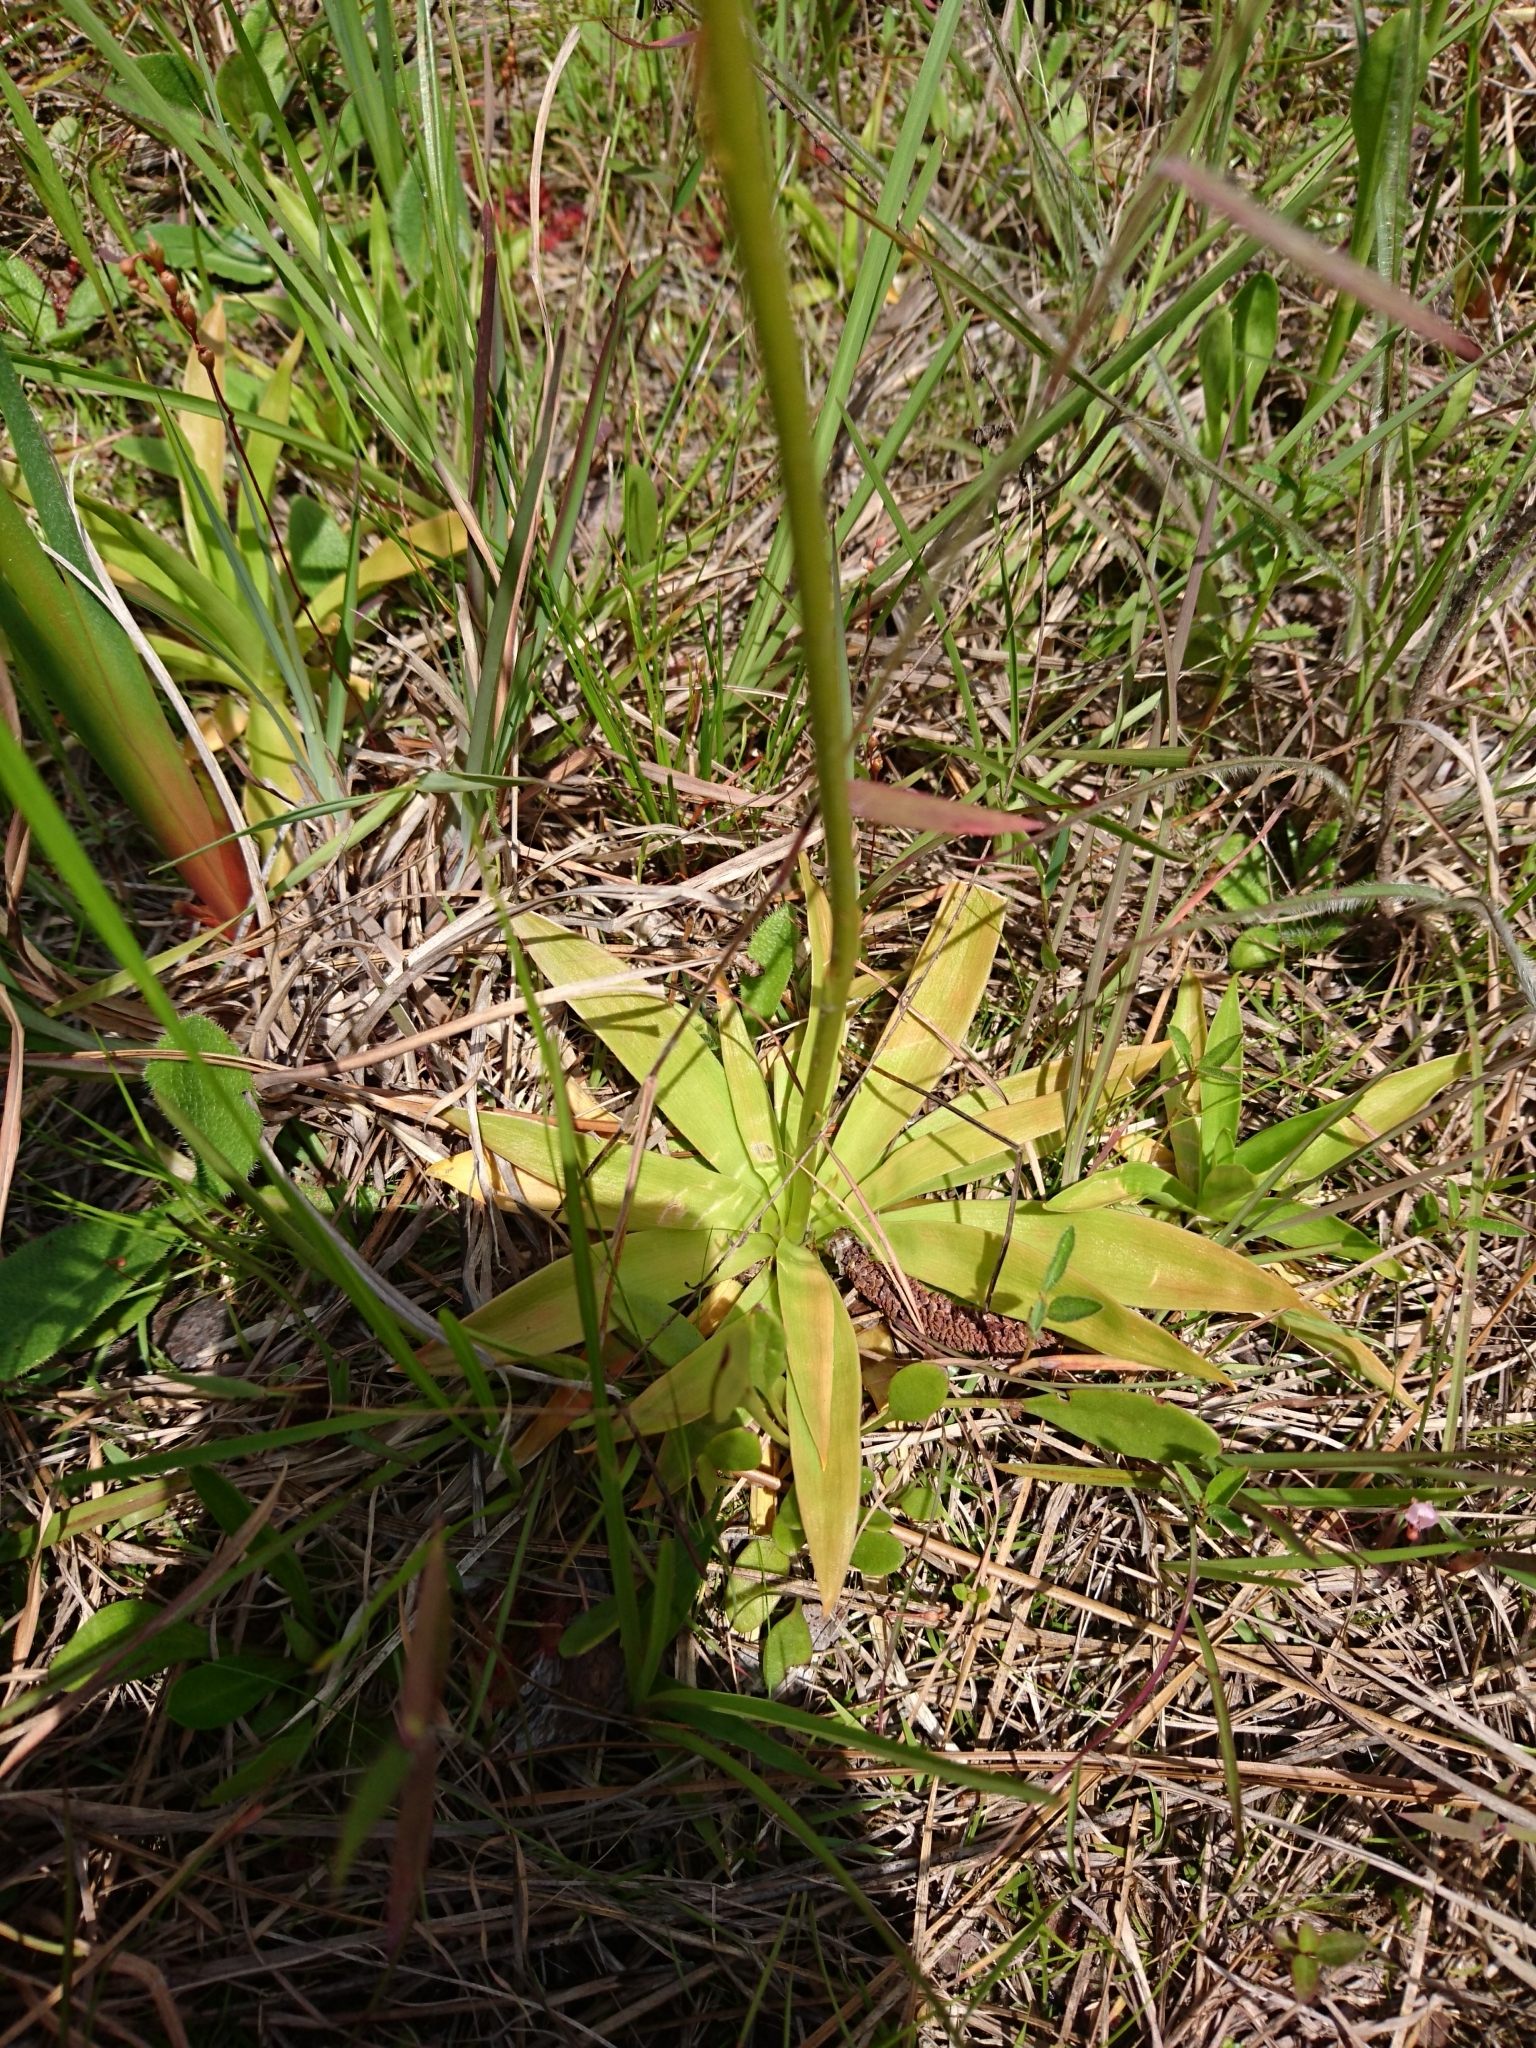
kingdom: Plantae
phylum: Tracheophyta
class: Liliopsida
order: Dioscoreales
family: Nartheciaceae
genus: Aletris
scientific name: Aletris lutea
